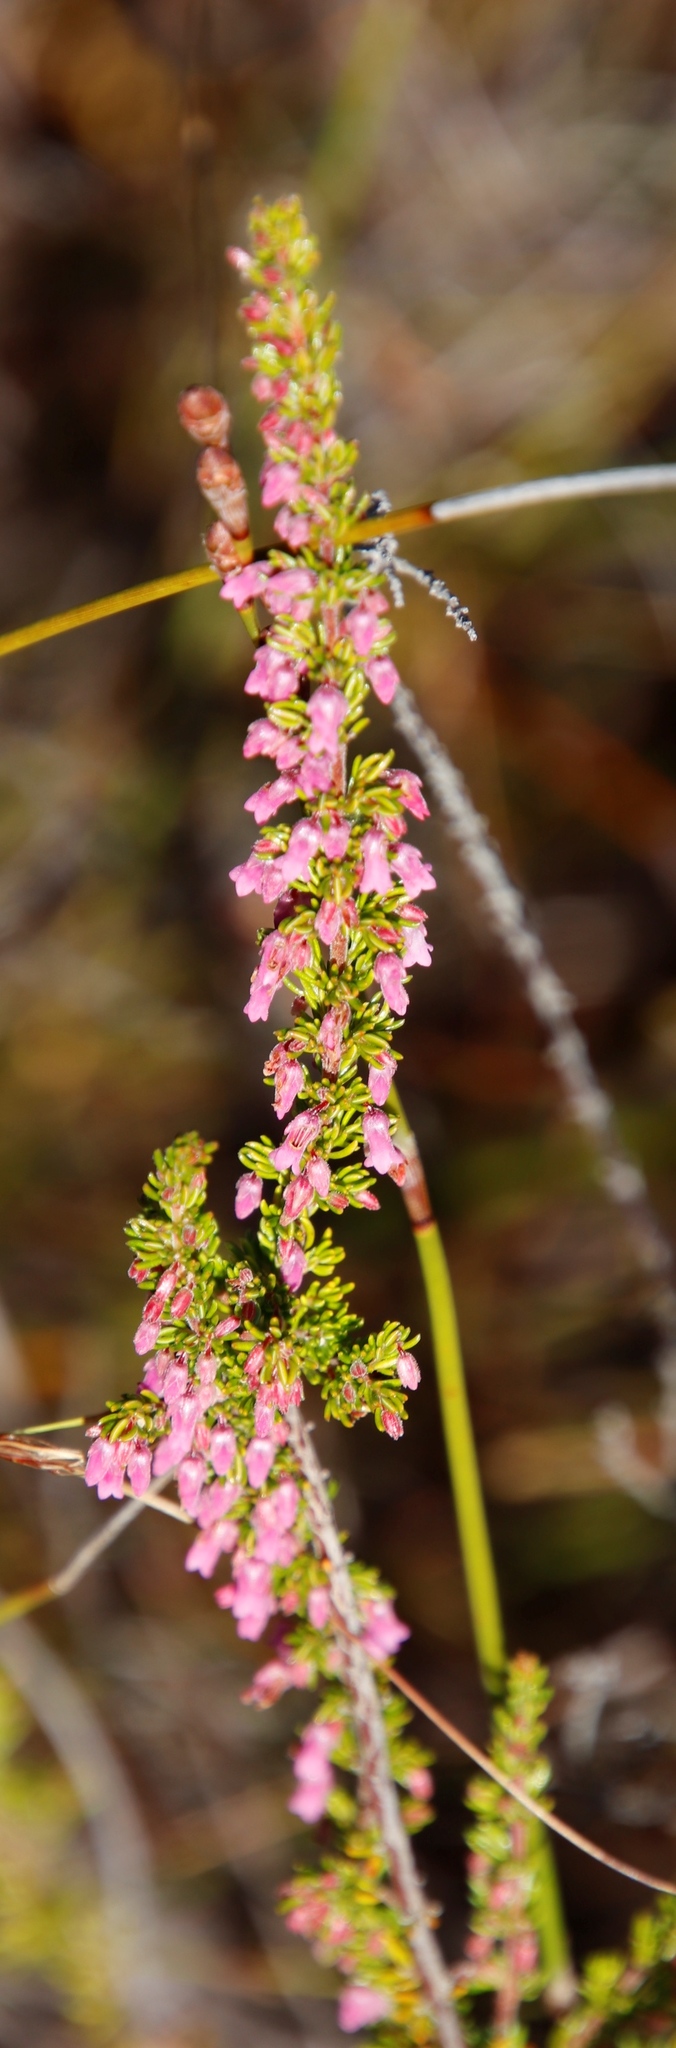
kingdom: Plantae
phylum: Tracheophyta
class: Magnoliopsida
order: Ericales
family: Ericaceae
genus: Erica
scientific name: Erica intervallaris
